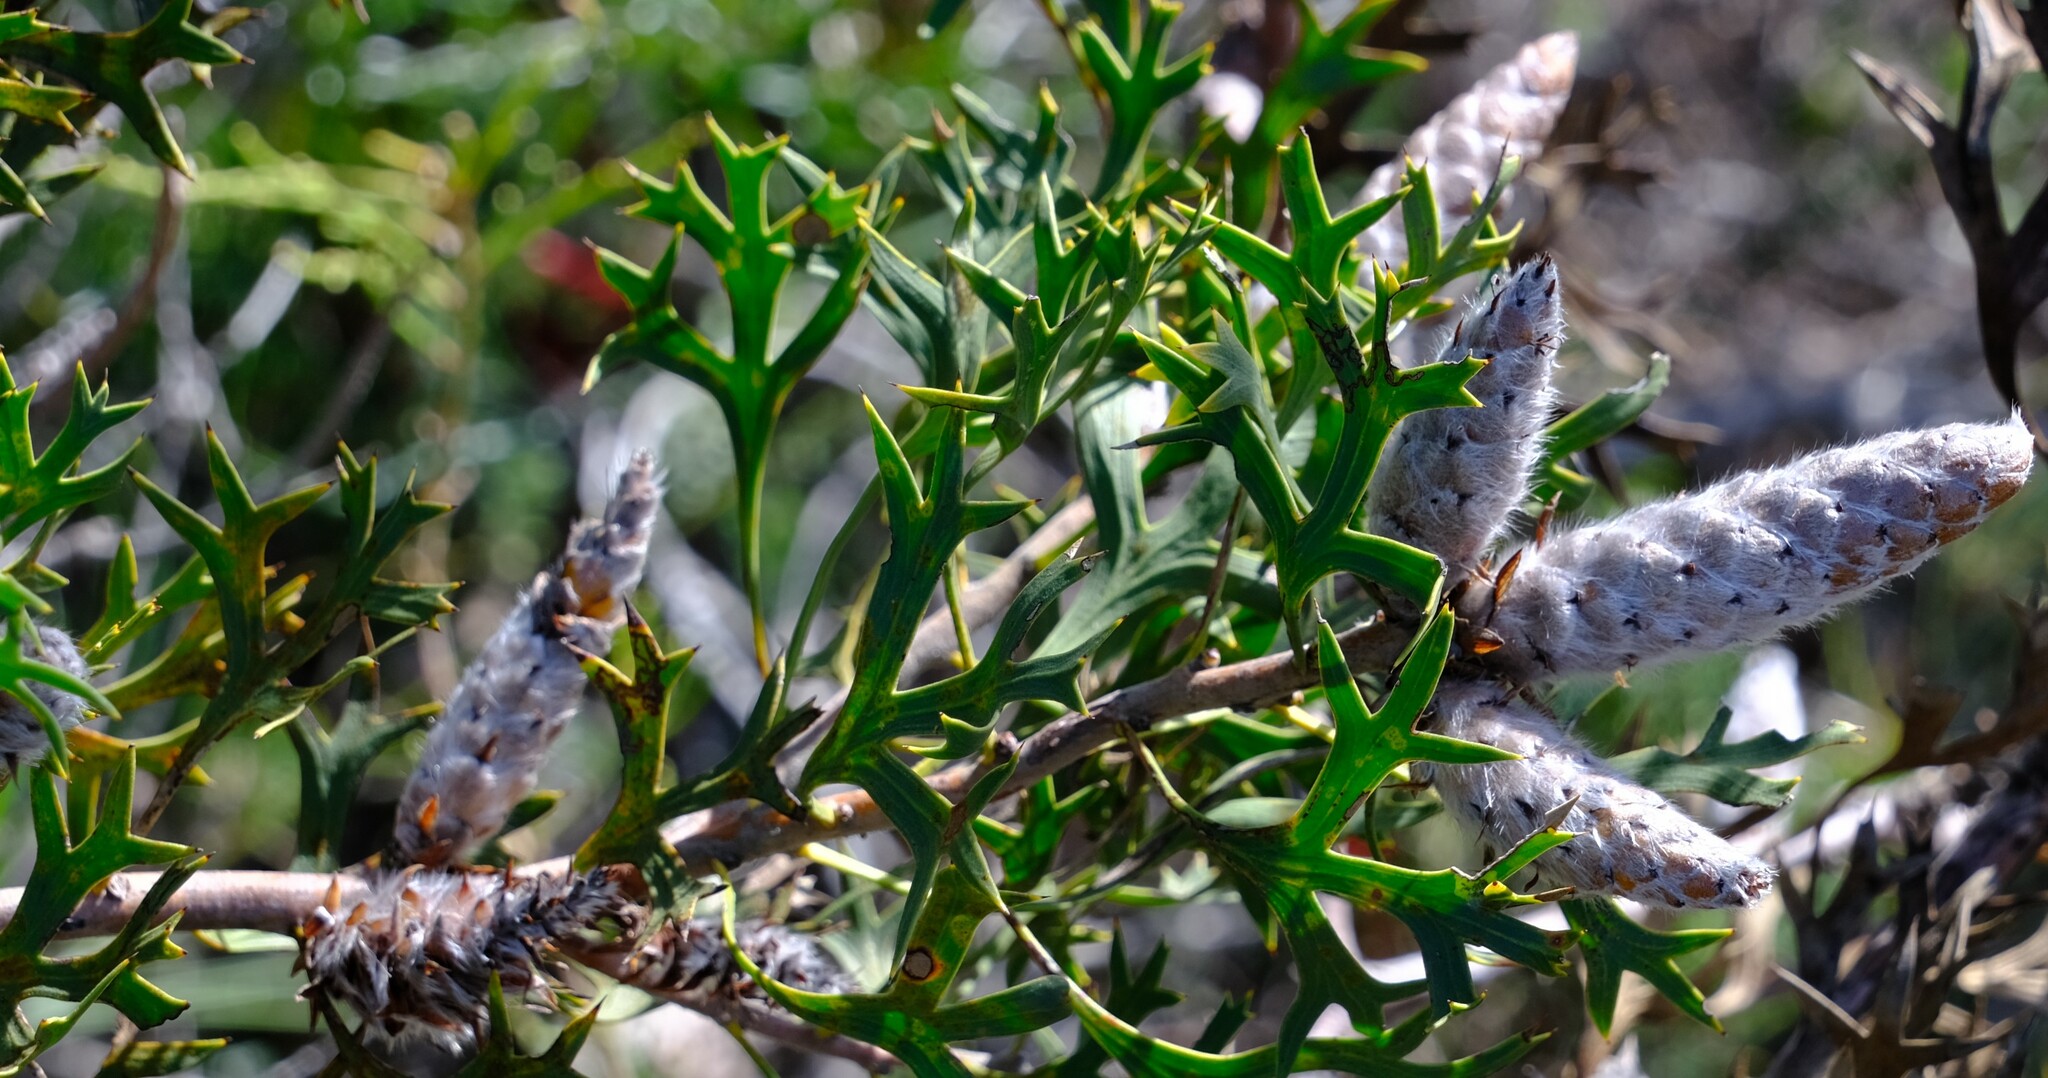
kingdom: Plantae
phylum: Tracheophyta
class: Magnoliopsida
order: Proteales
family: Proteaceae
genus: Petrophile
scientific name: Petrophile macrostachya
